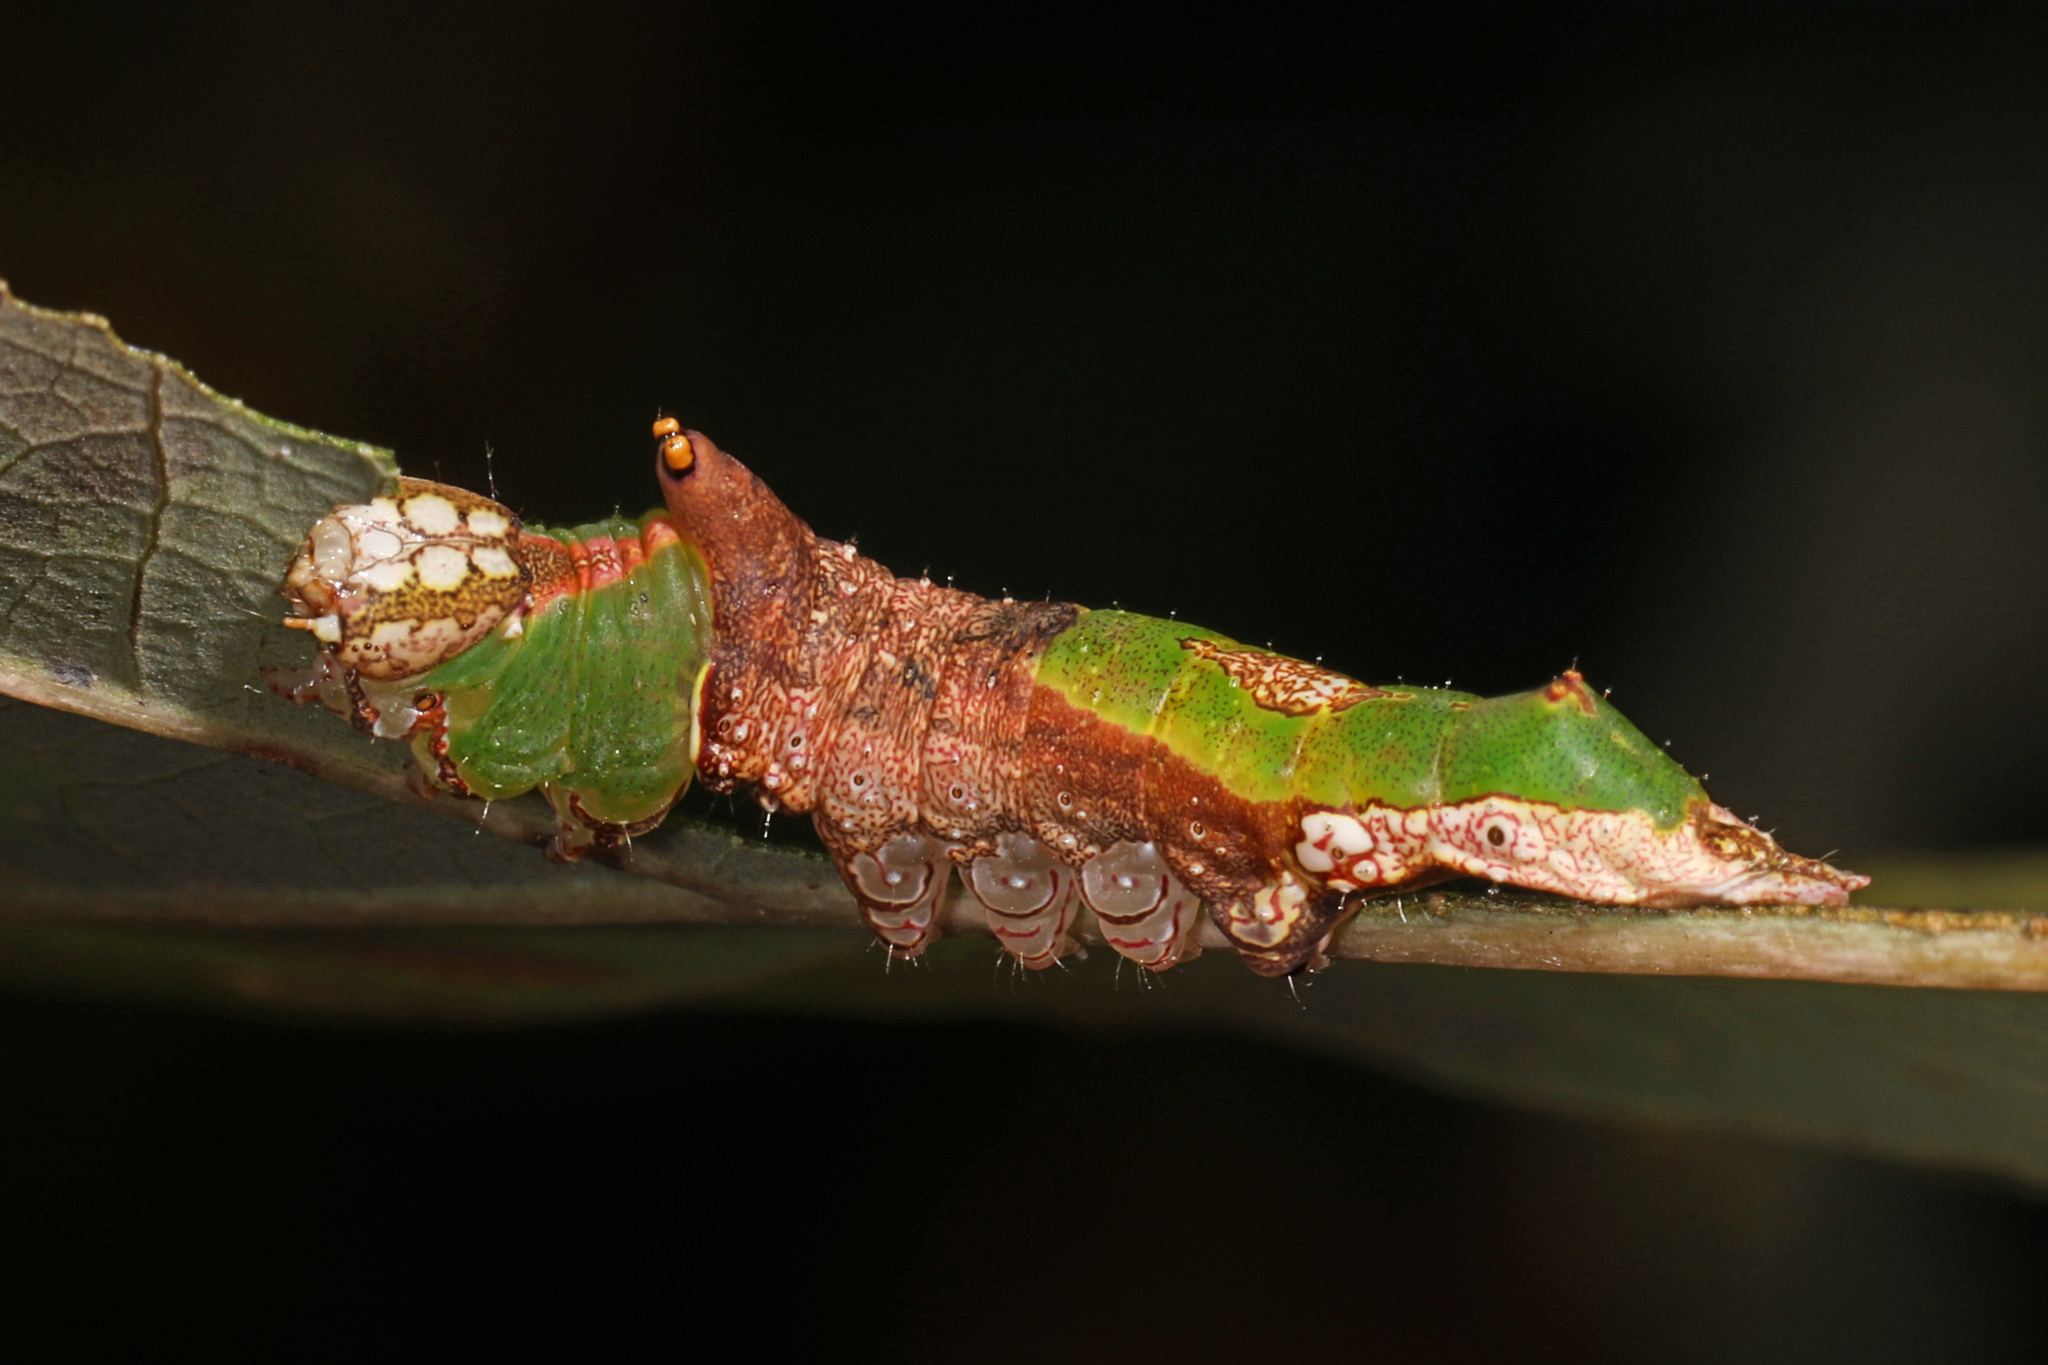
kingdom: Animalia
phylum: Arthropoda
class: Insecta
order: Lepidoptera
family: Notodontidae
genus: Oligocentria
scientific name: Oligocentria Ianassa lignicolor
